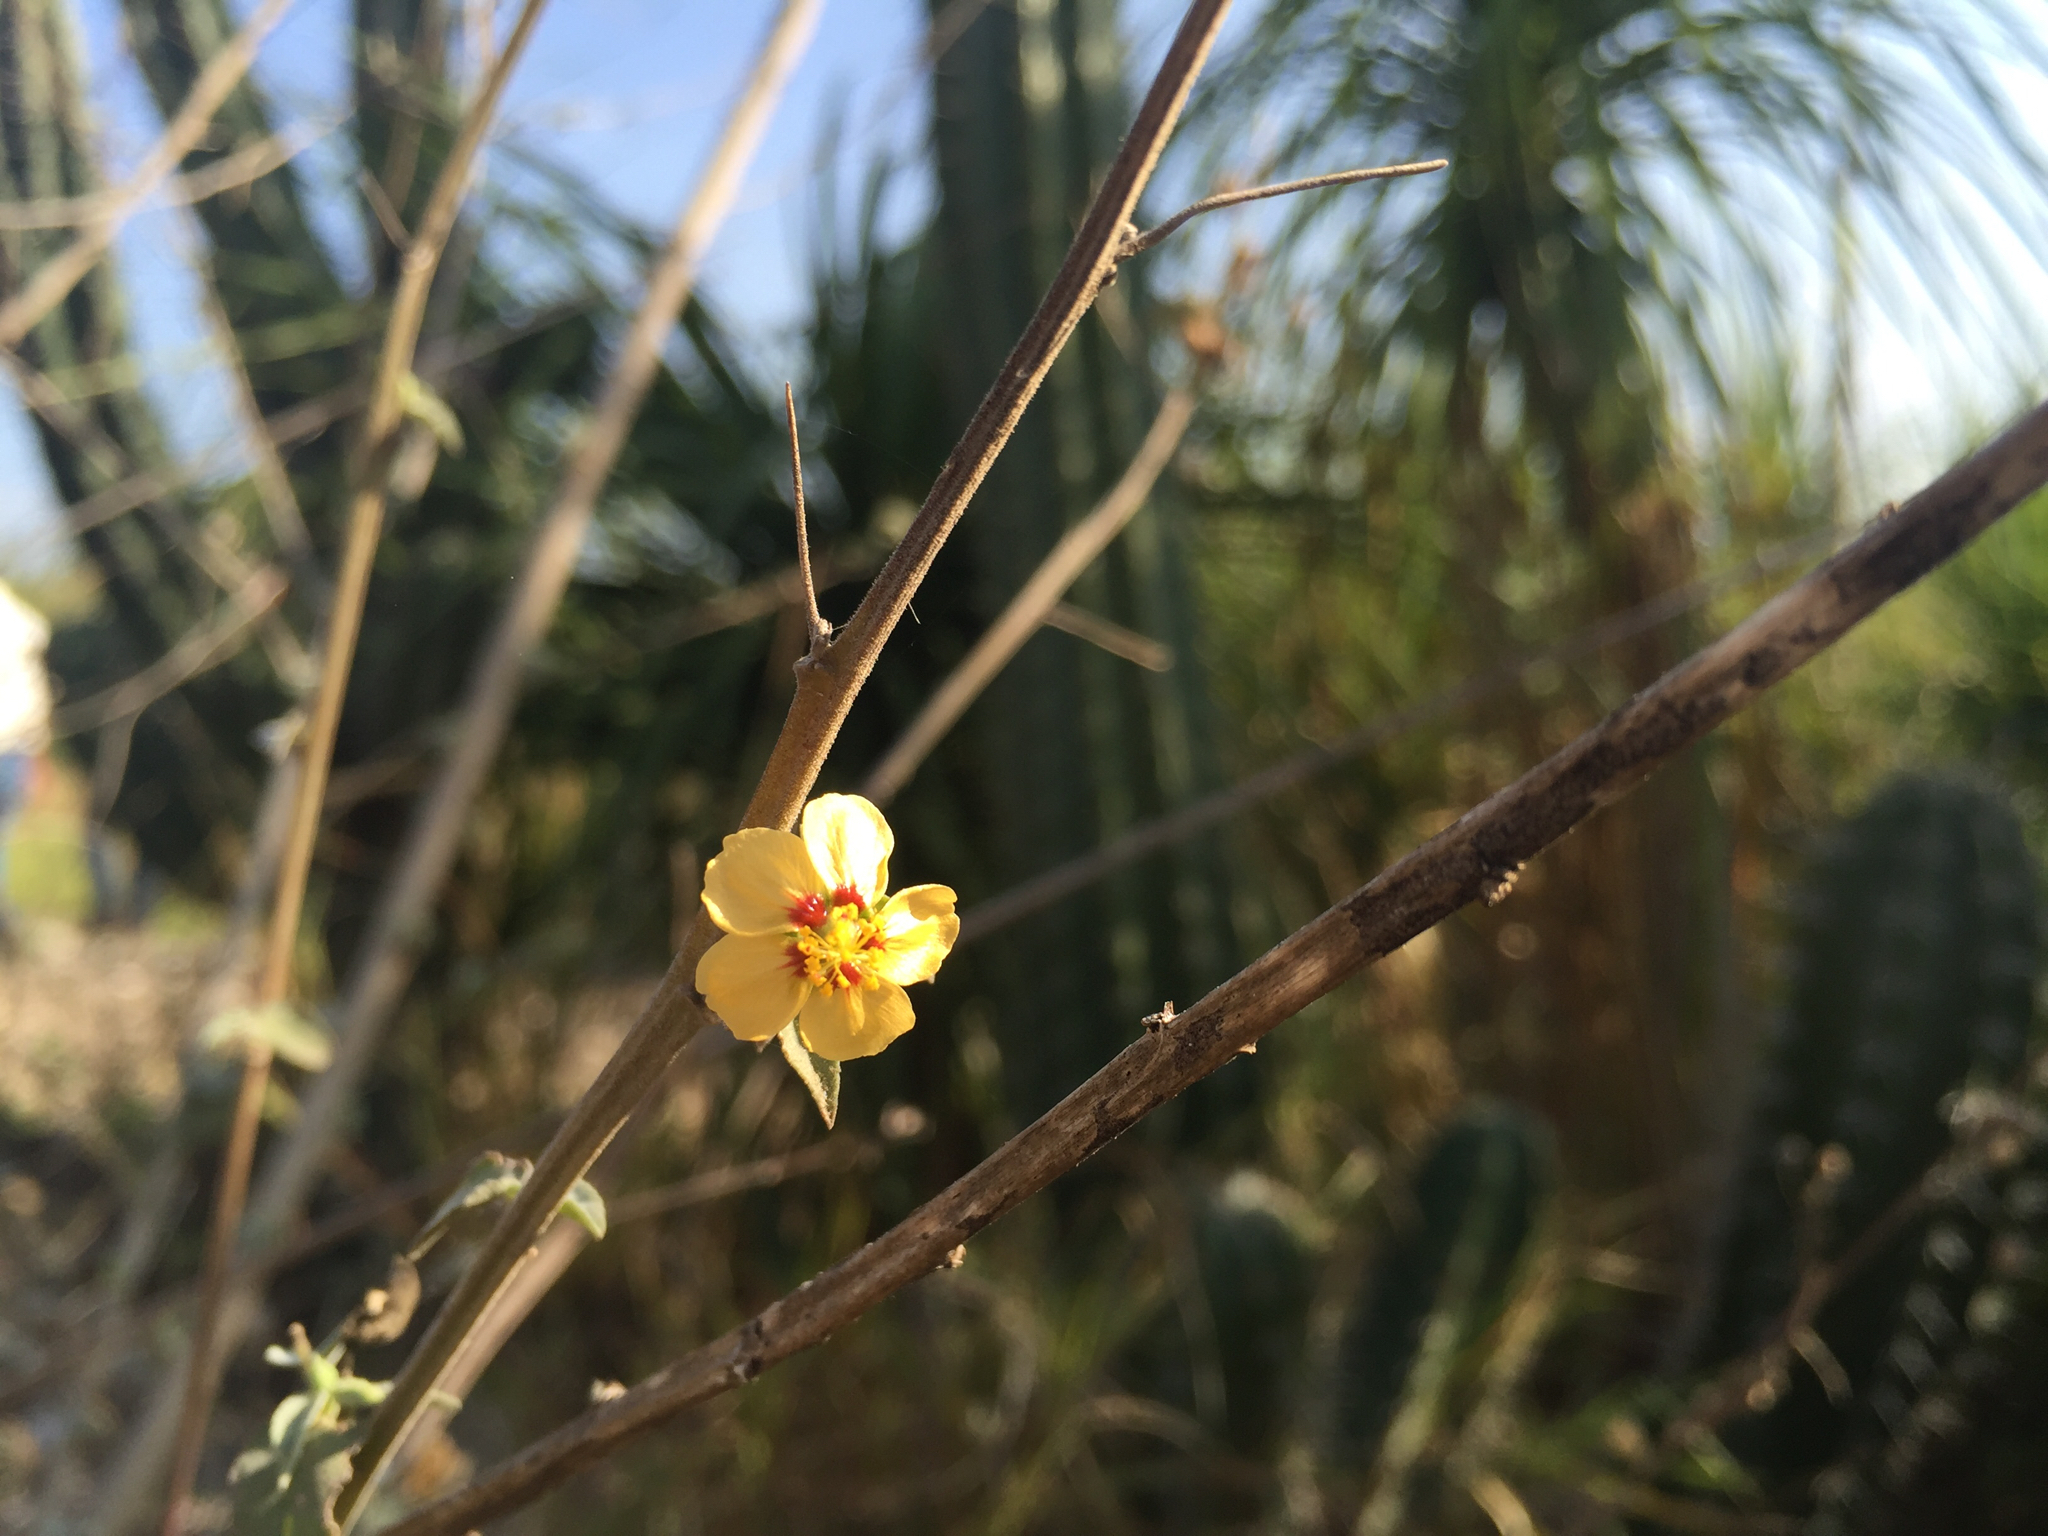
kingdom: Plantae
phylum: Tracheophyta
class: Magnoliopsida
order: Malvales
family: Malvaceae
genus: Abutilon
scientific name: Abutilon trisulcatum
